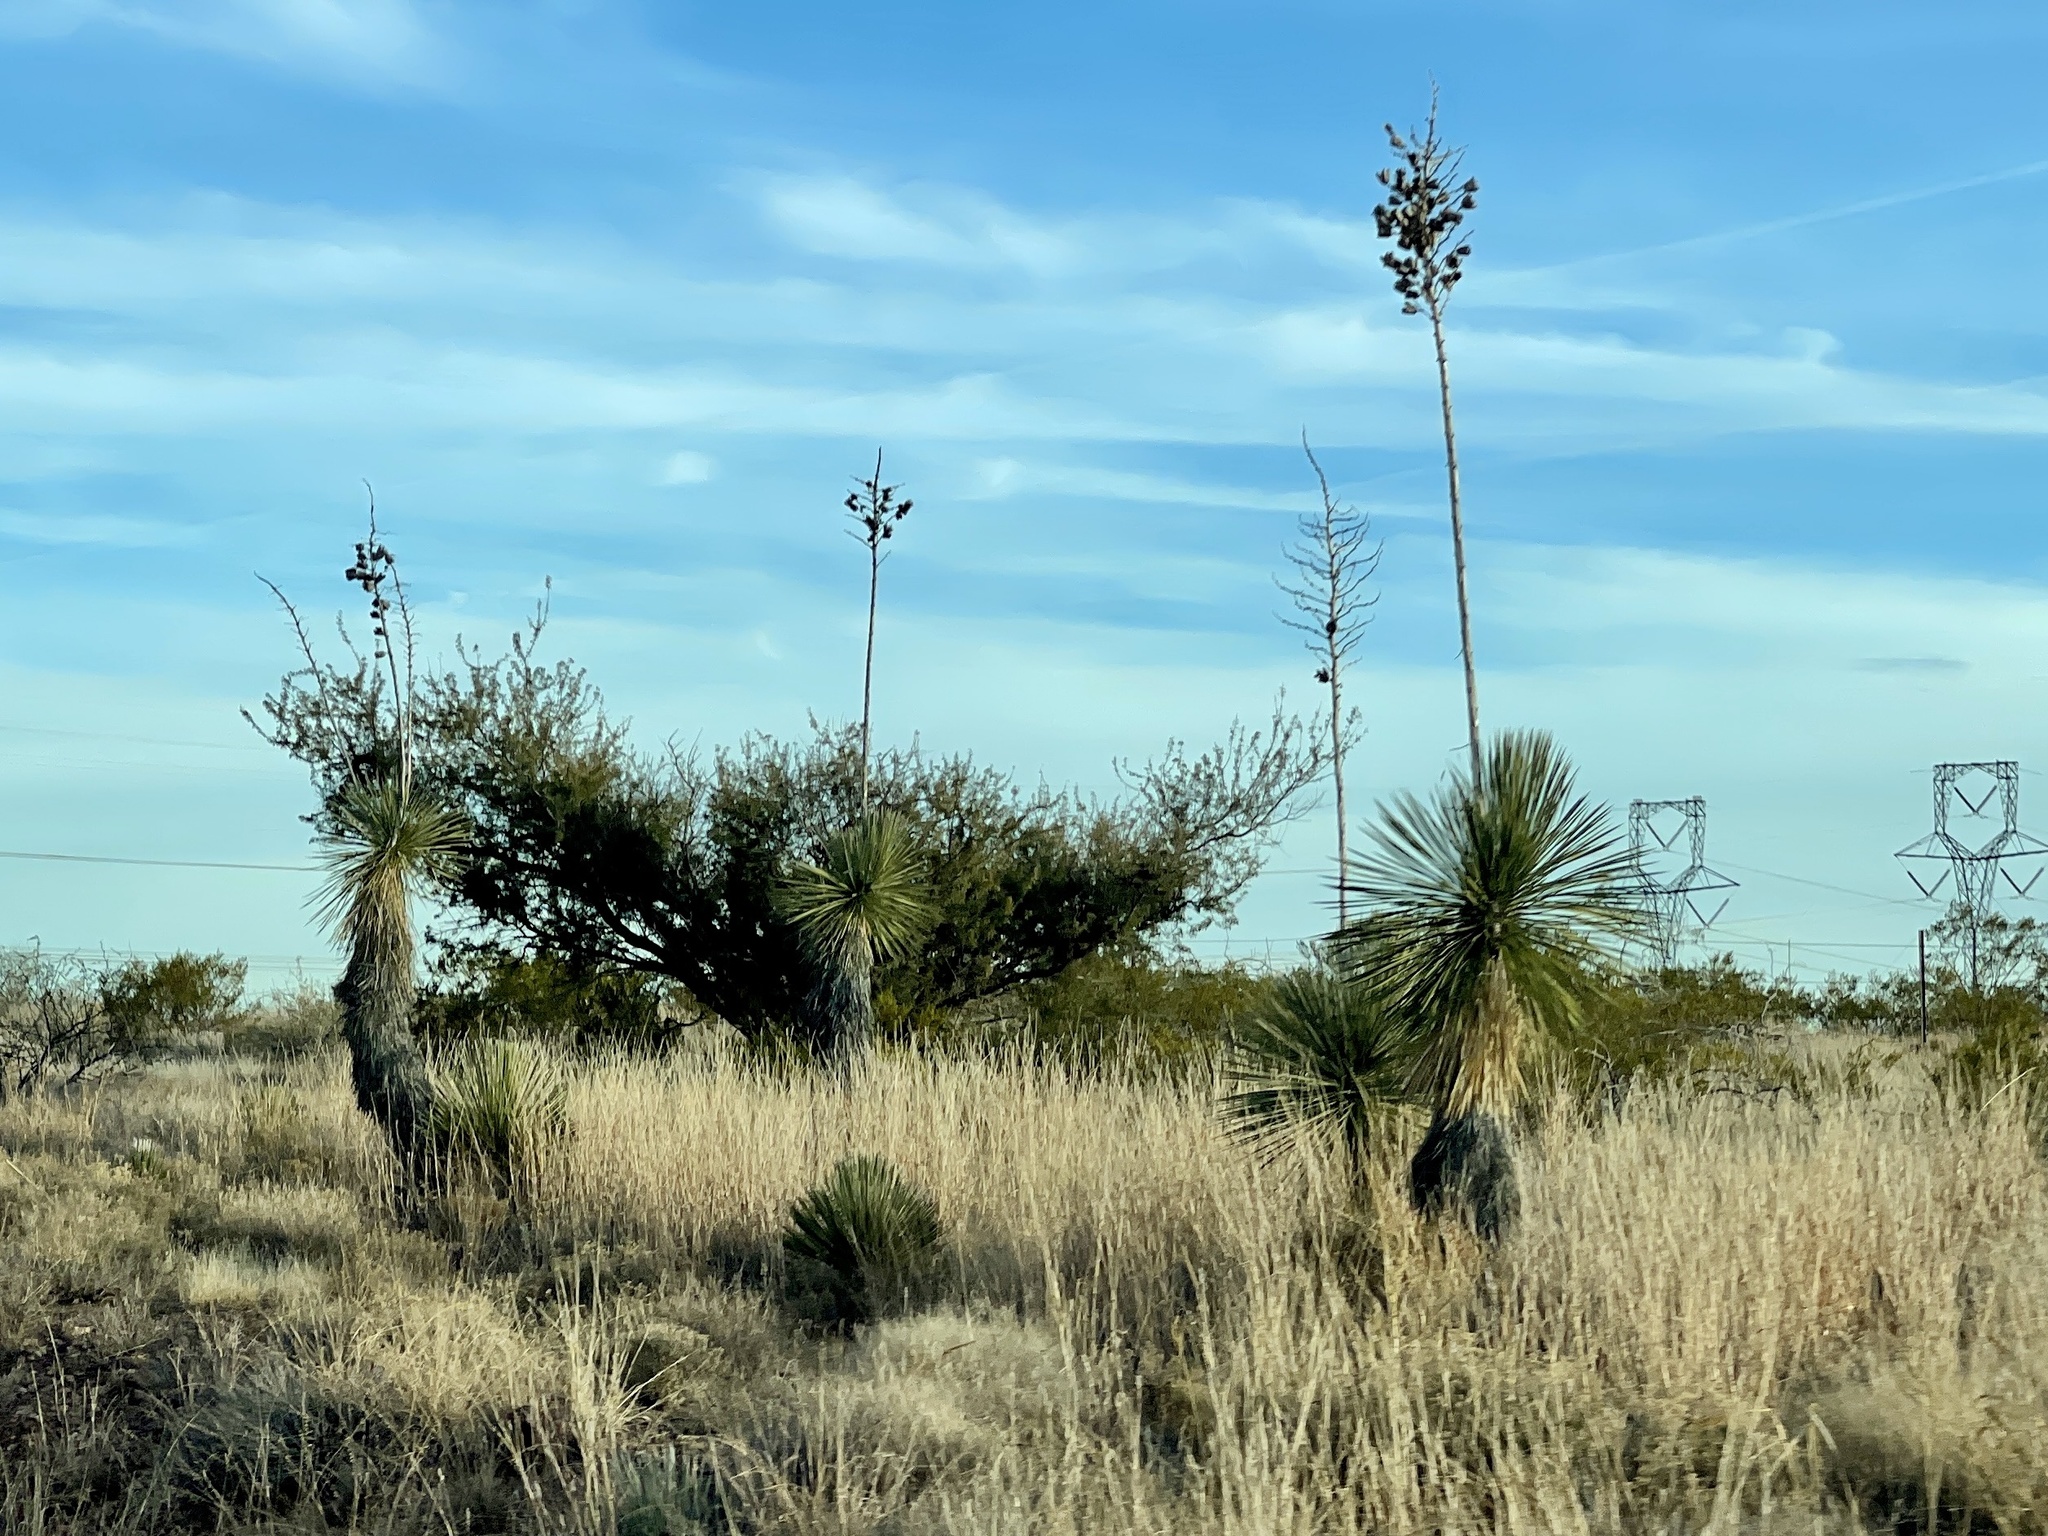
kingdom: Plantae
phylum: Tracheophyta
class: Liliopsida
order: Asparagales
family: Asparagaceae
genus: Yucca
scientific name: Yucca elata
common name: Palmella
